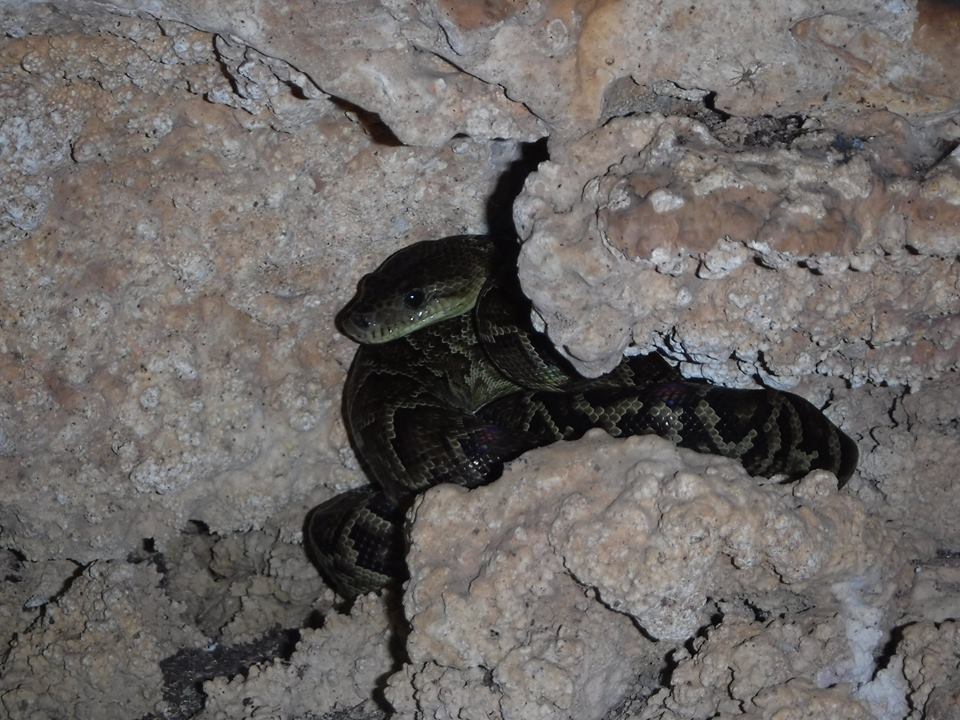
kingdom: Animalia
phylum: Chordata
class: Squamata
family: Boidae
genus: Chilabothrus
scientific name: Chilabothrus angulifer
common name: Cuban boa
